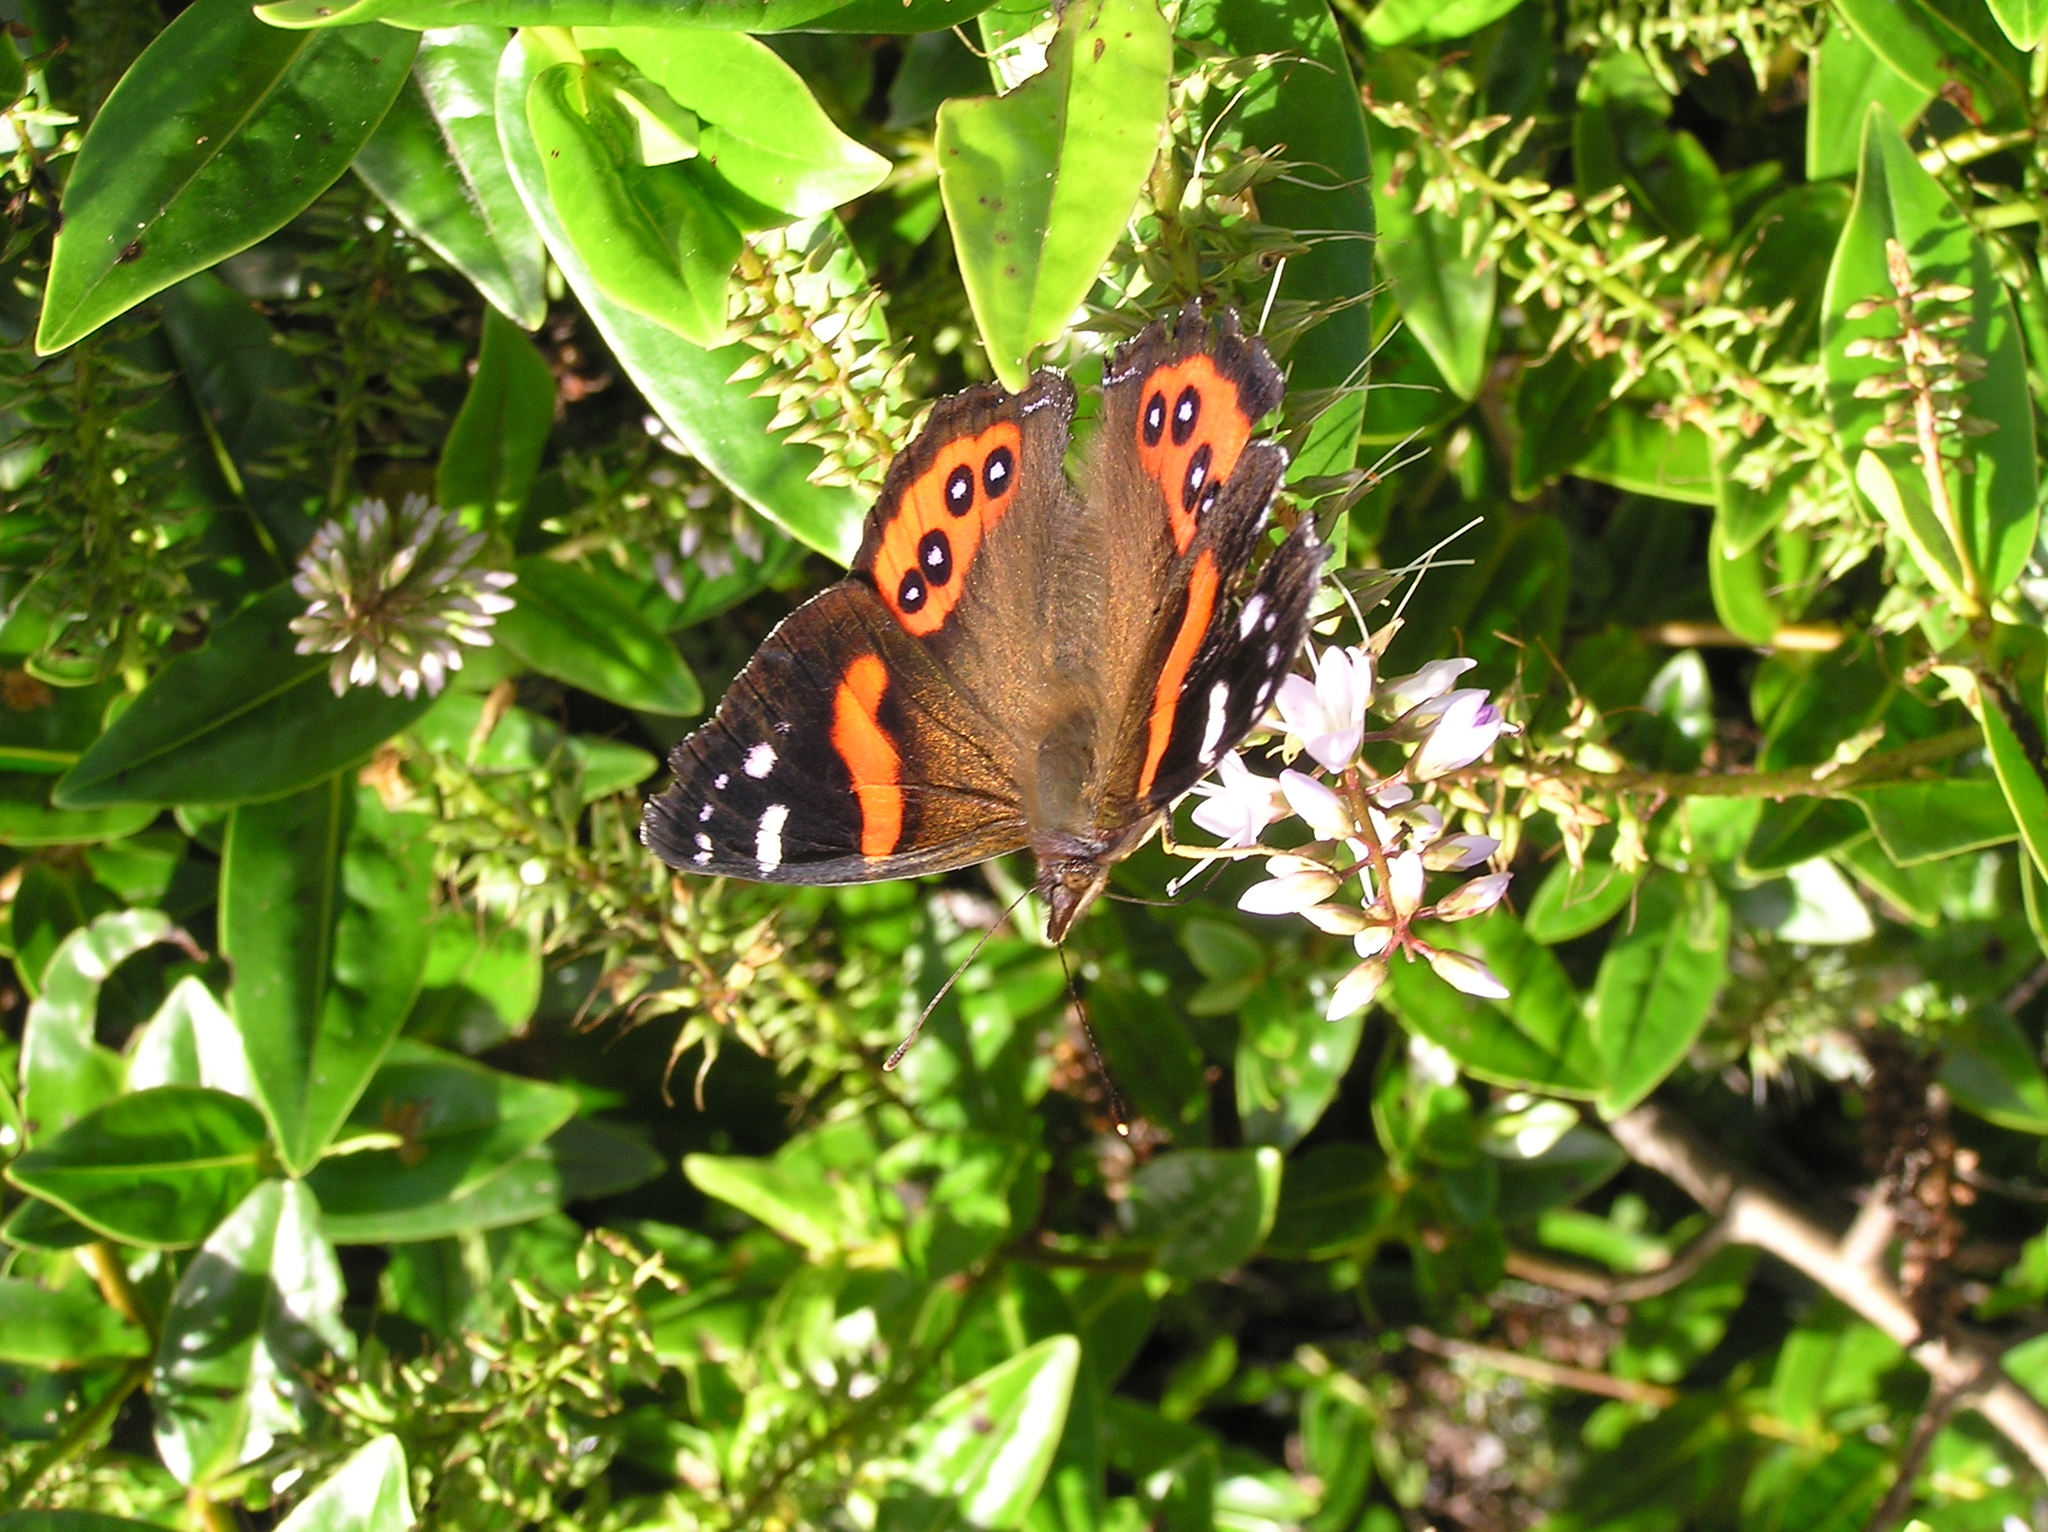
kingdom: Animalia
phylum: Arthropoda
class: Insecta
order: Lepidoptera
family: Nymphalidae
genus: Vanessa
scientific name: Vanessa gonerilla
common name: New zealand red admiral
